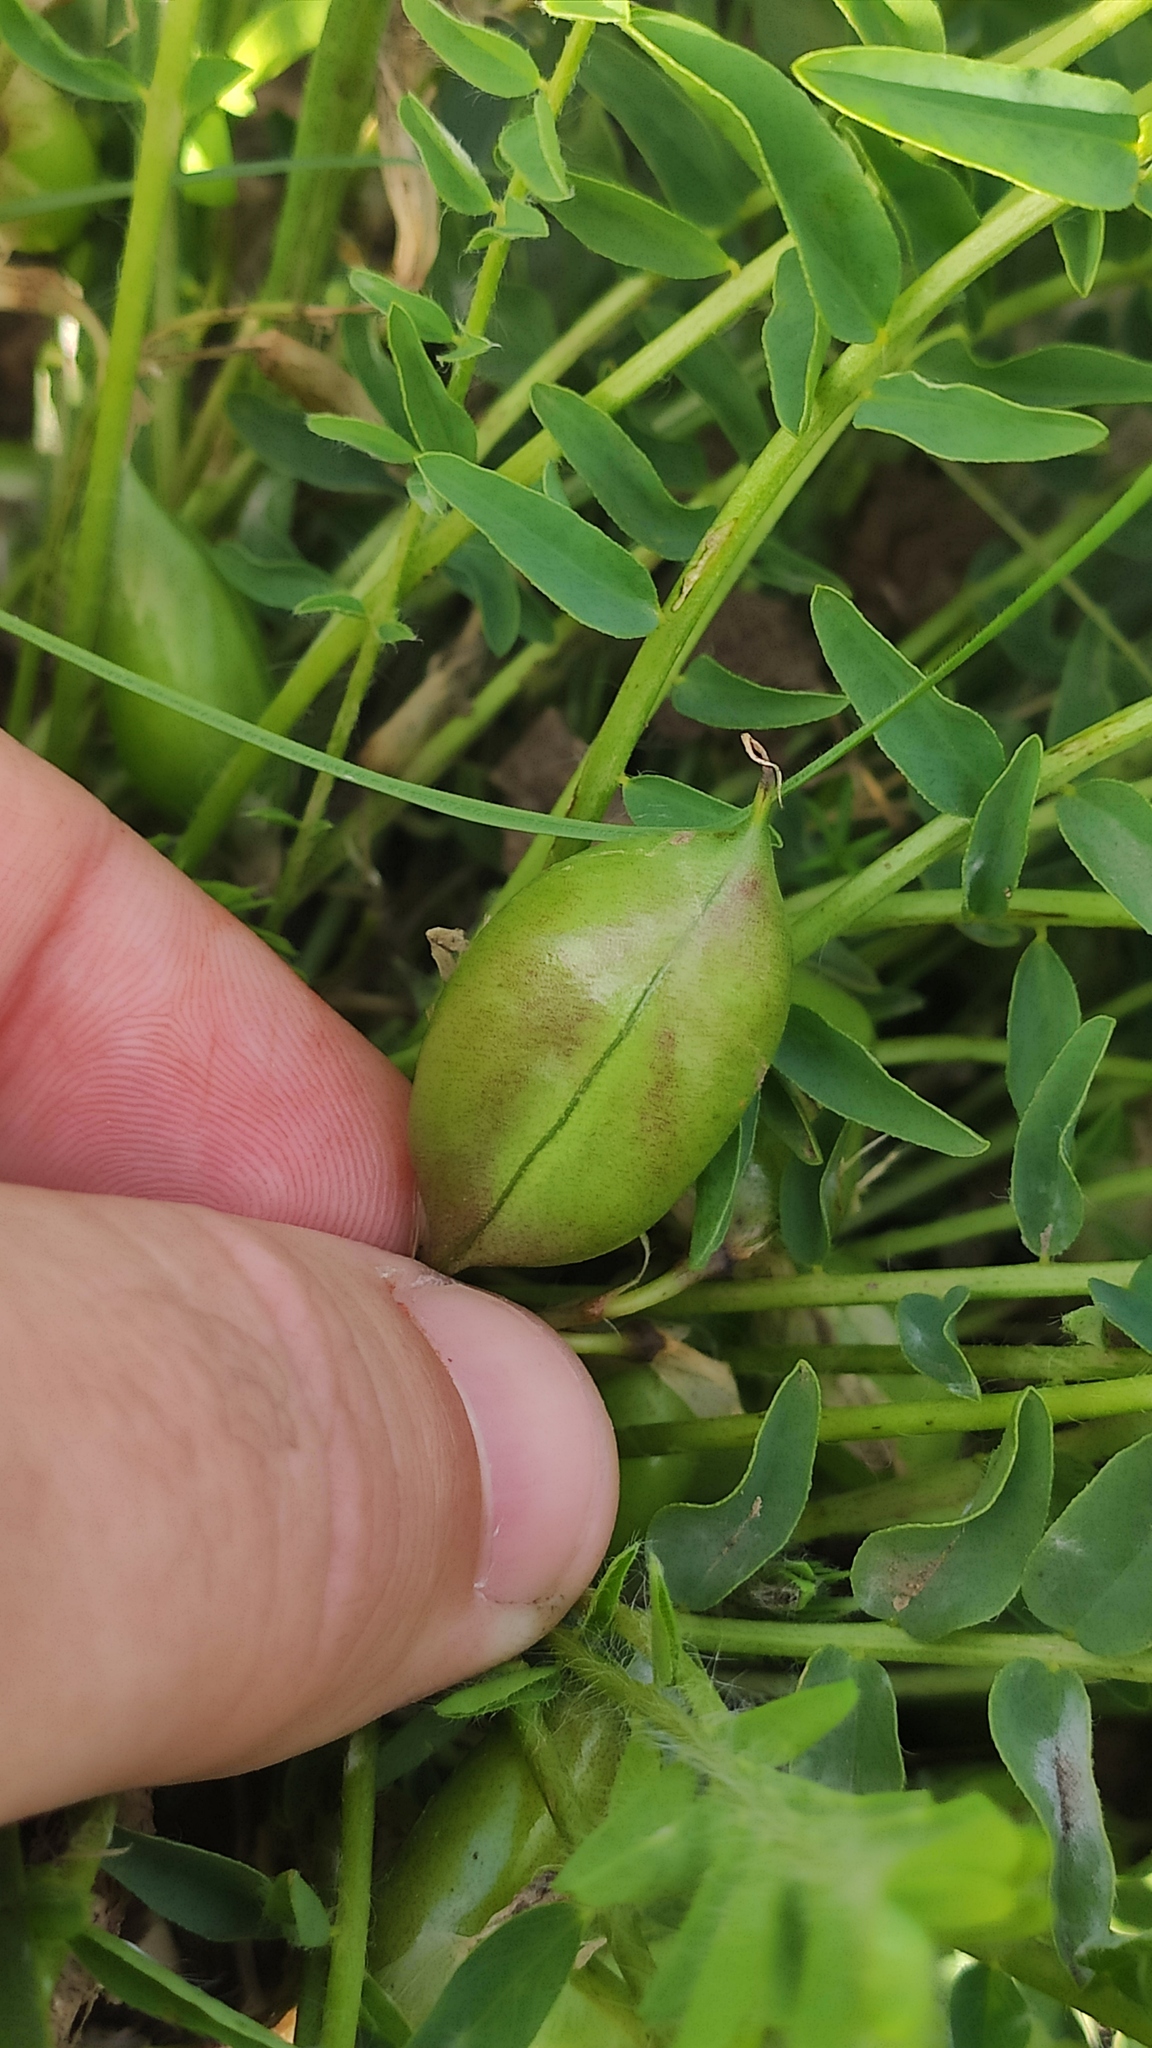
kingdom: Plantae
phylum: Tracheophyta
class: Magnoliopsida
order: Fabales
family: Fabaceae
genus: Astragalus
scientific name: Astragalus wolgensis
